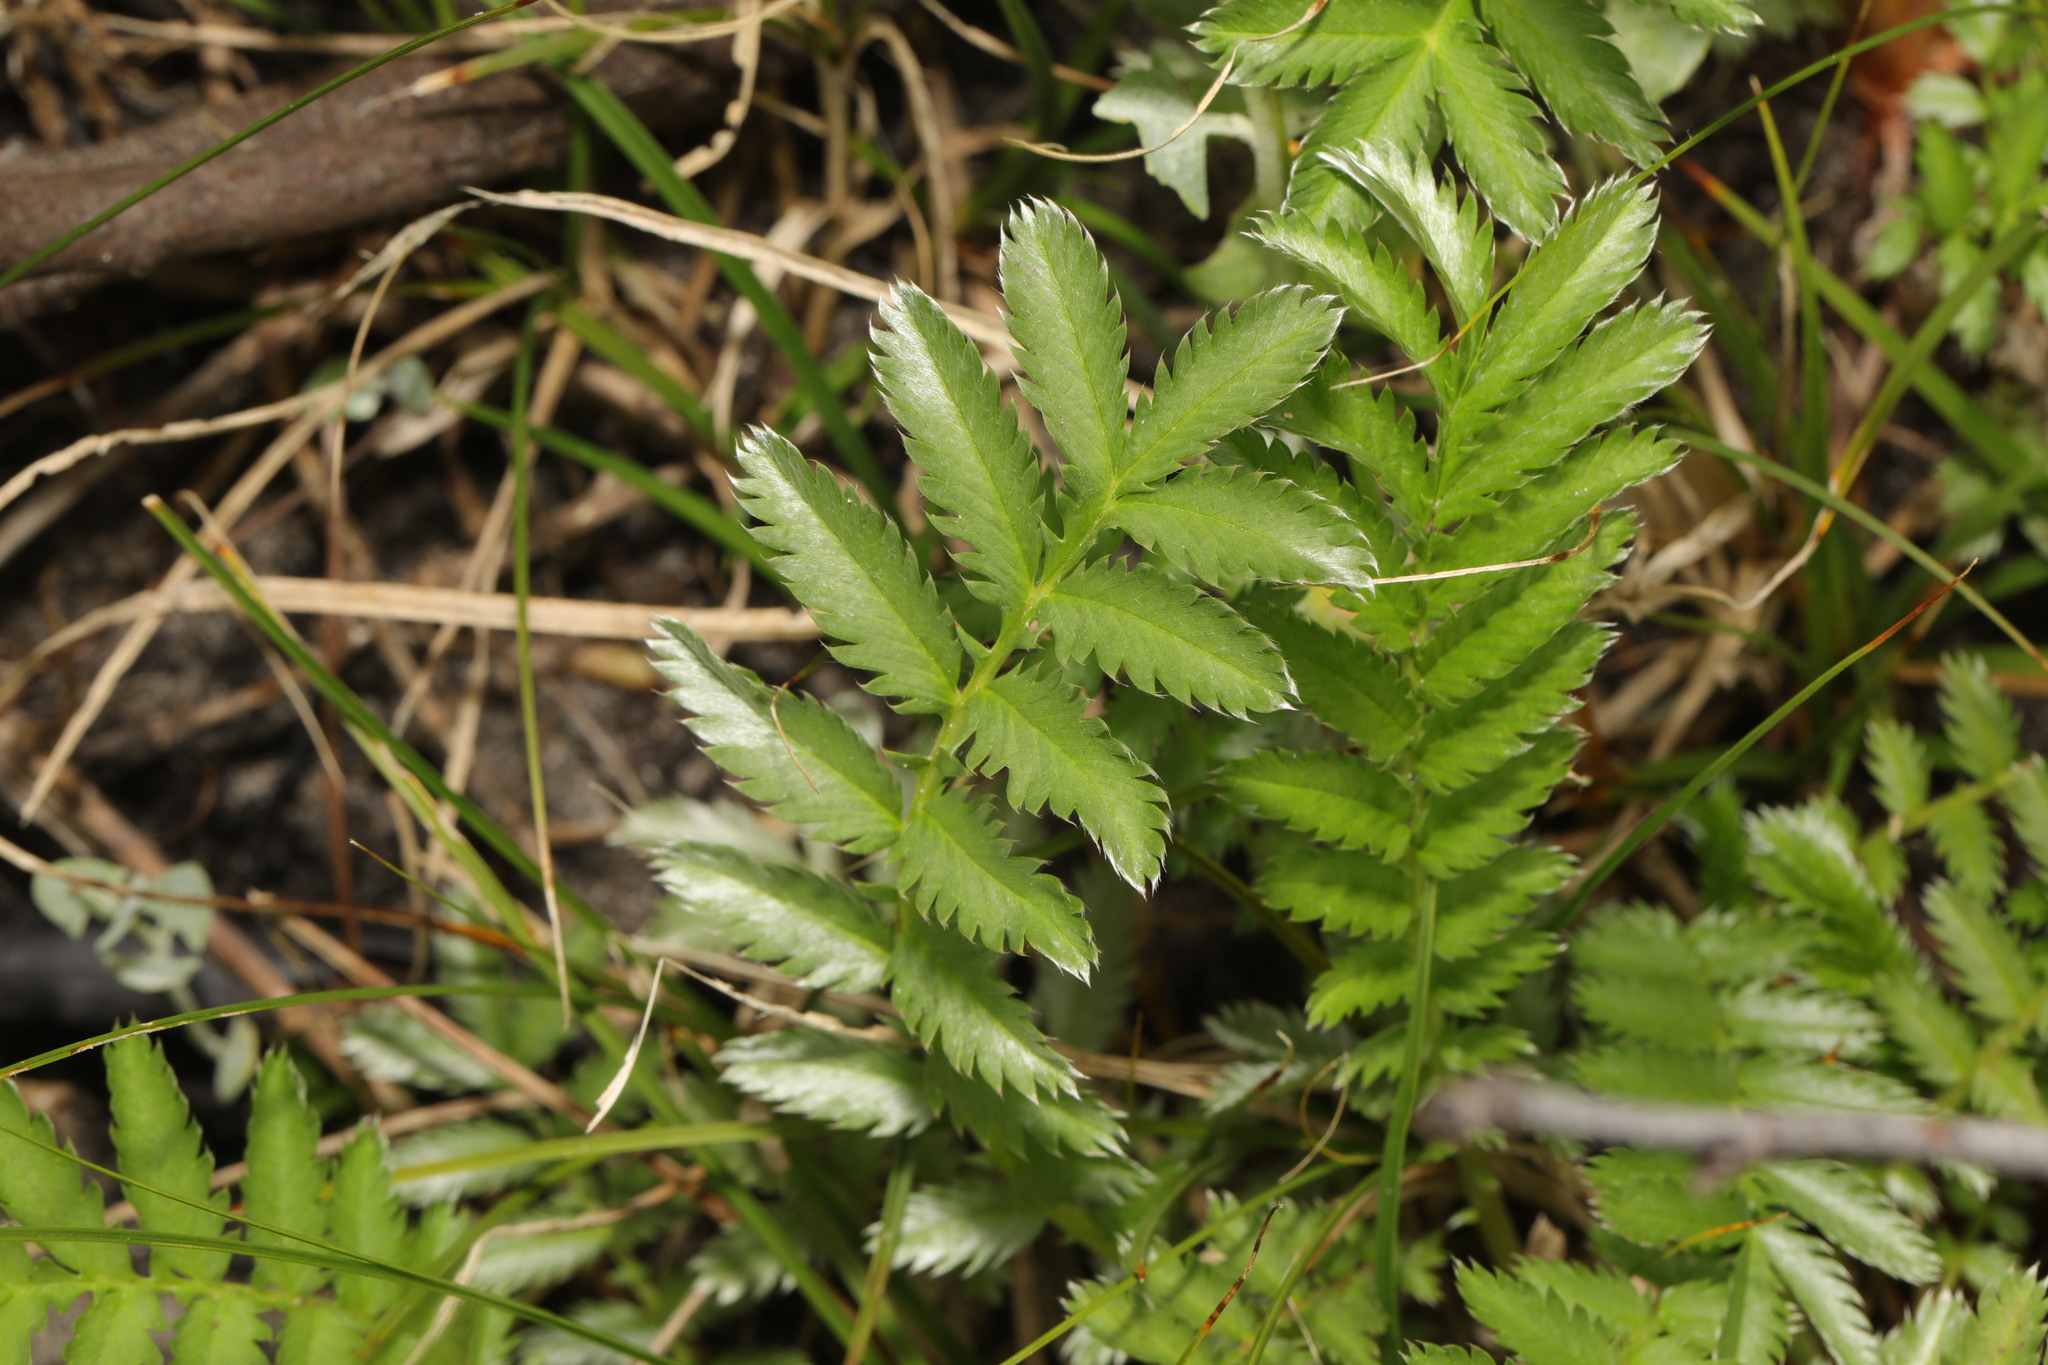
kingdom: Plantae
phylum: Tracheophyta
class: Magnoliopsida
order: Rosales
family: Rosaceae
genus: Argentina
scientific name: Argentina anserina
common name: Common silverweed
